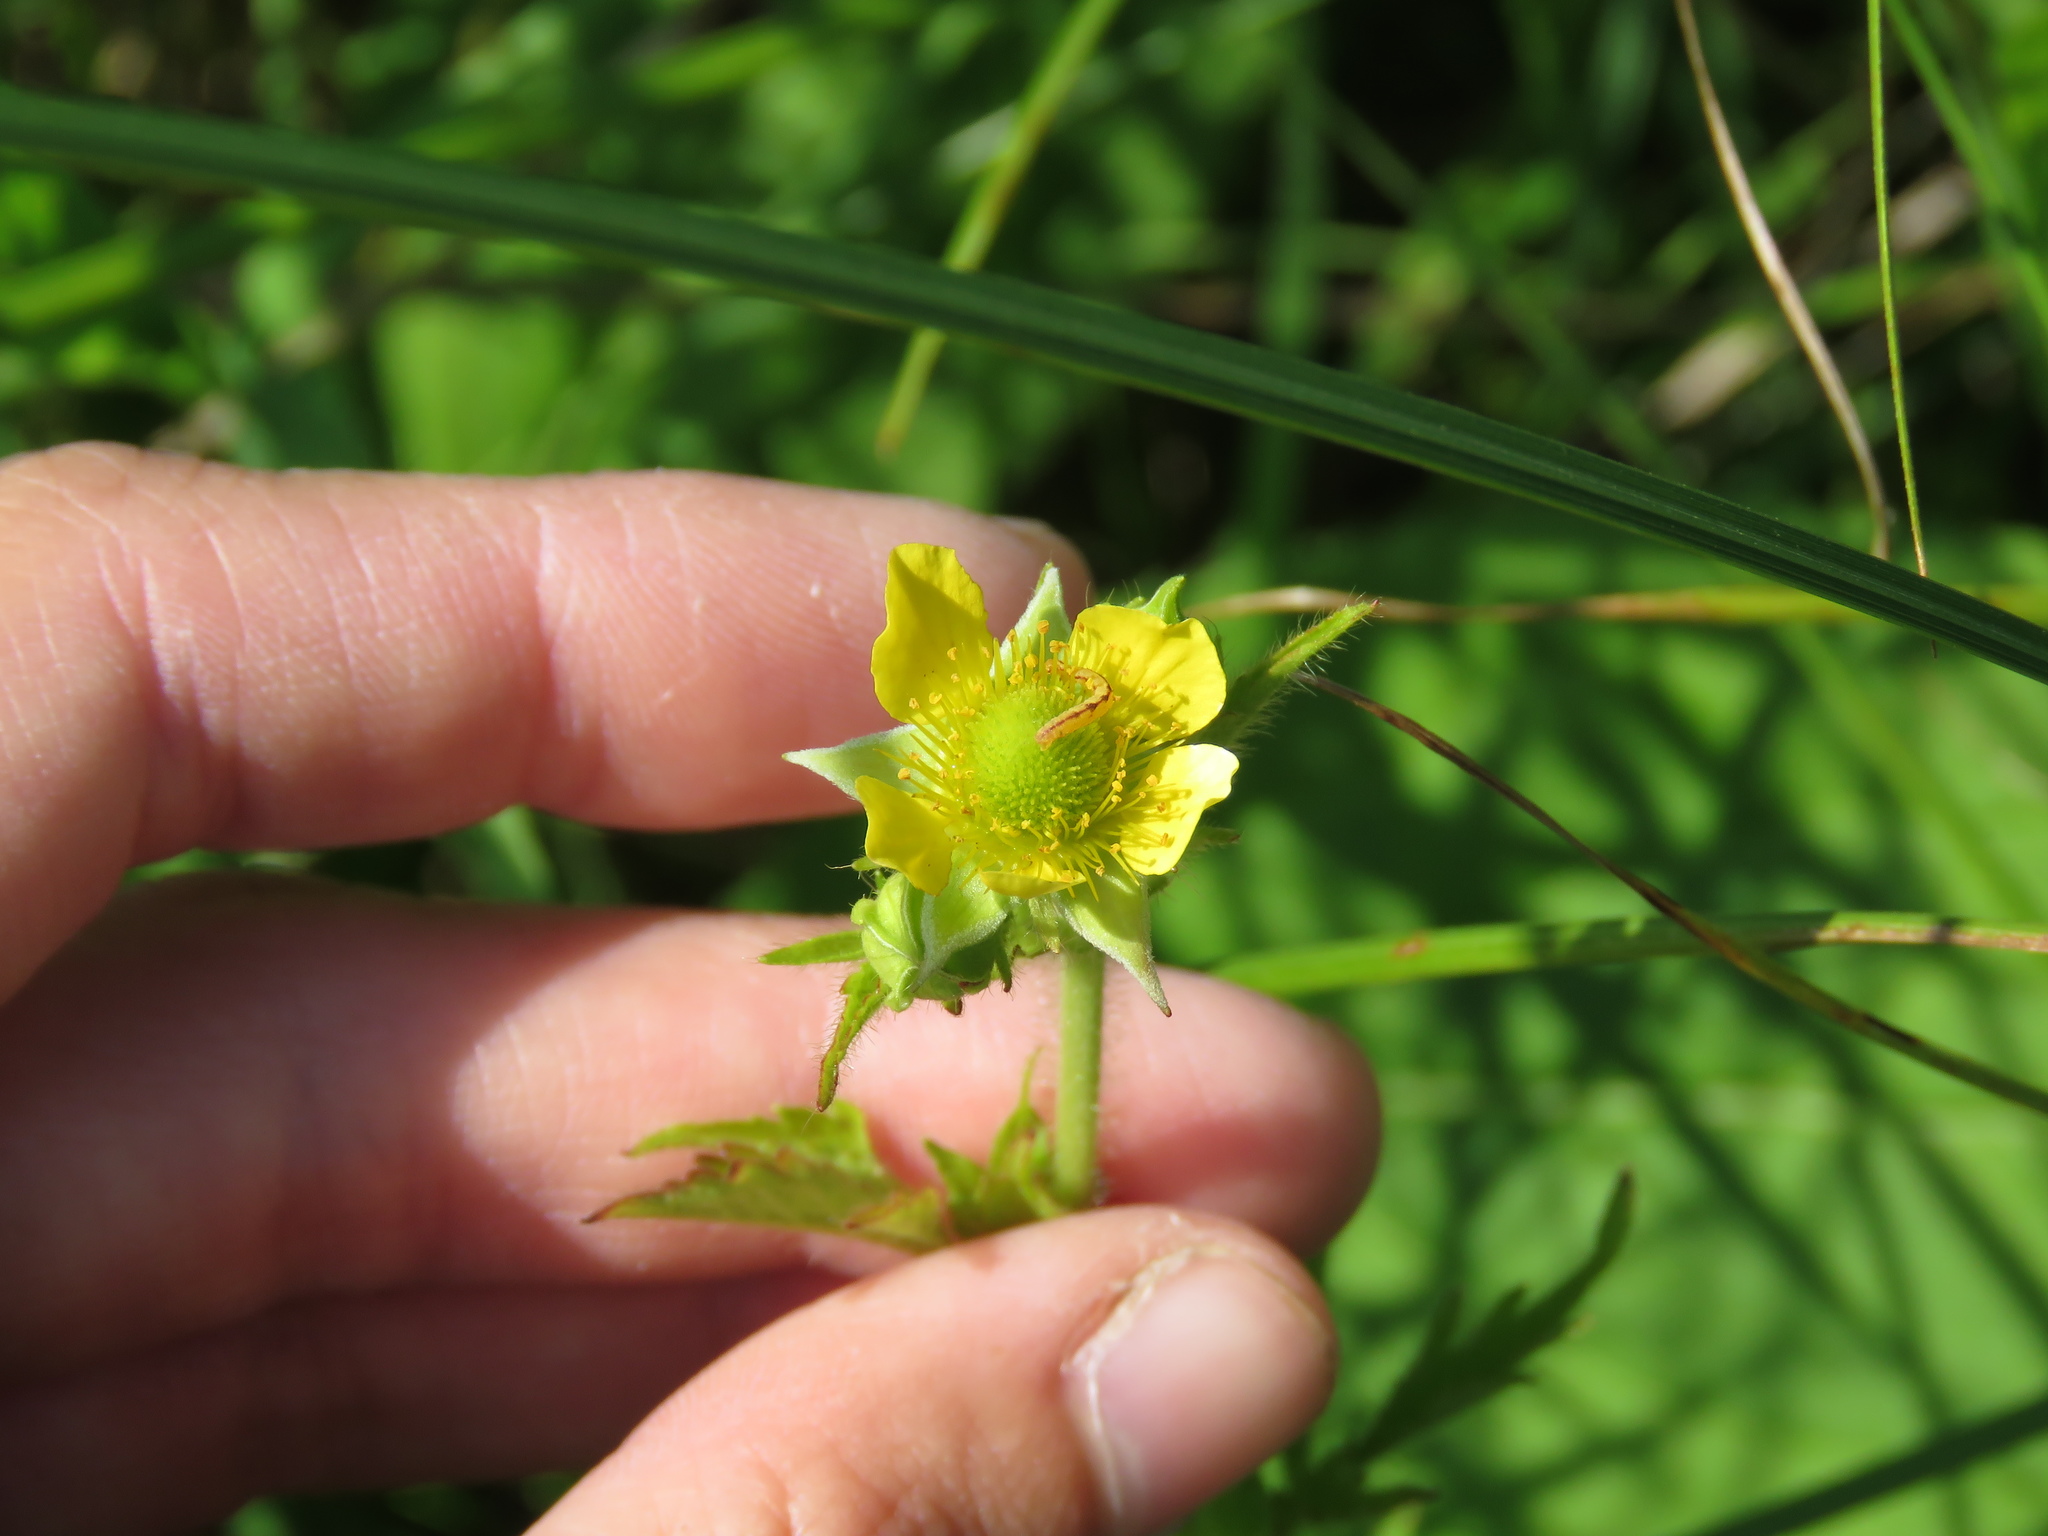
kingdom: Plantae
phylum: Tracheophyta
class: Magnoliopsida
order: Rosales
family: Rosaceae
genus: Geum
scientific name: Geum aleppicum
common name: Yellow avens
